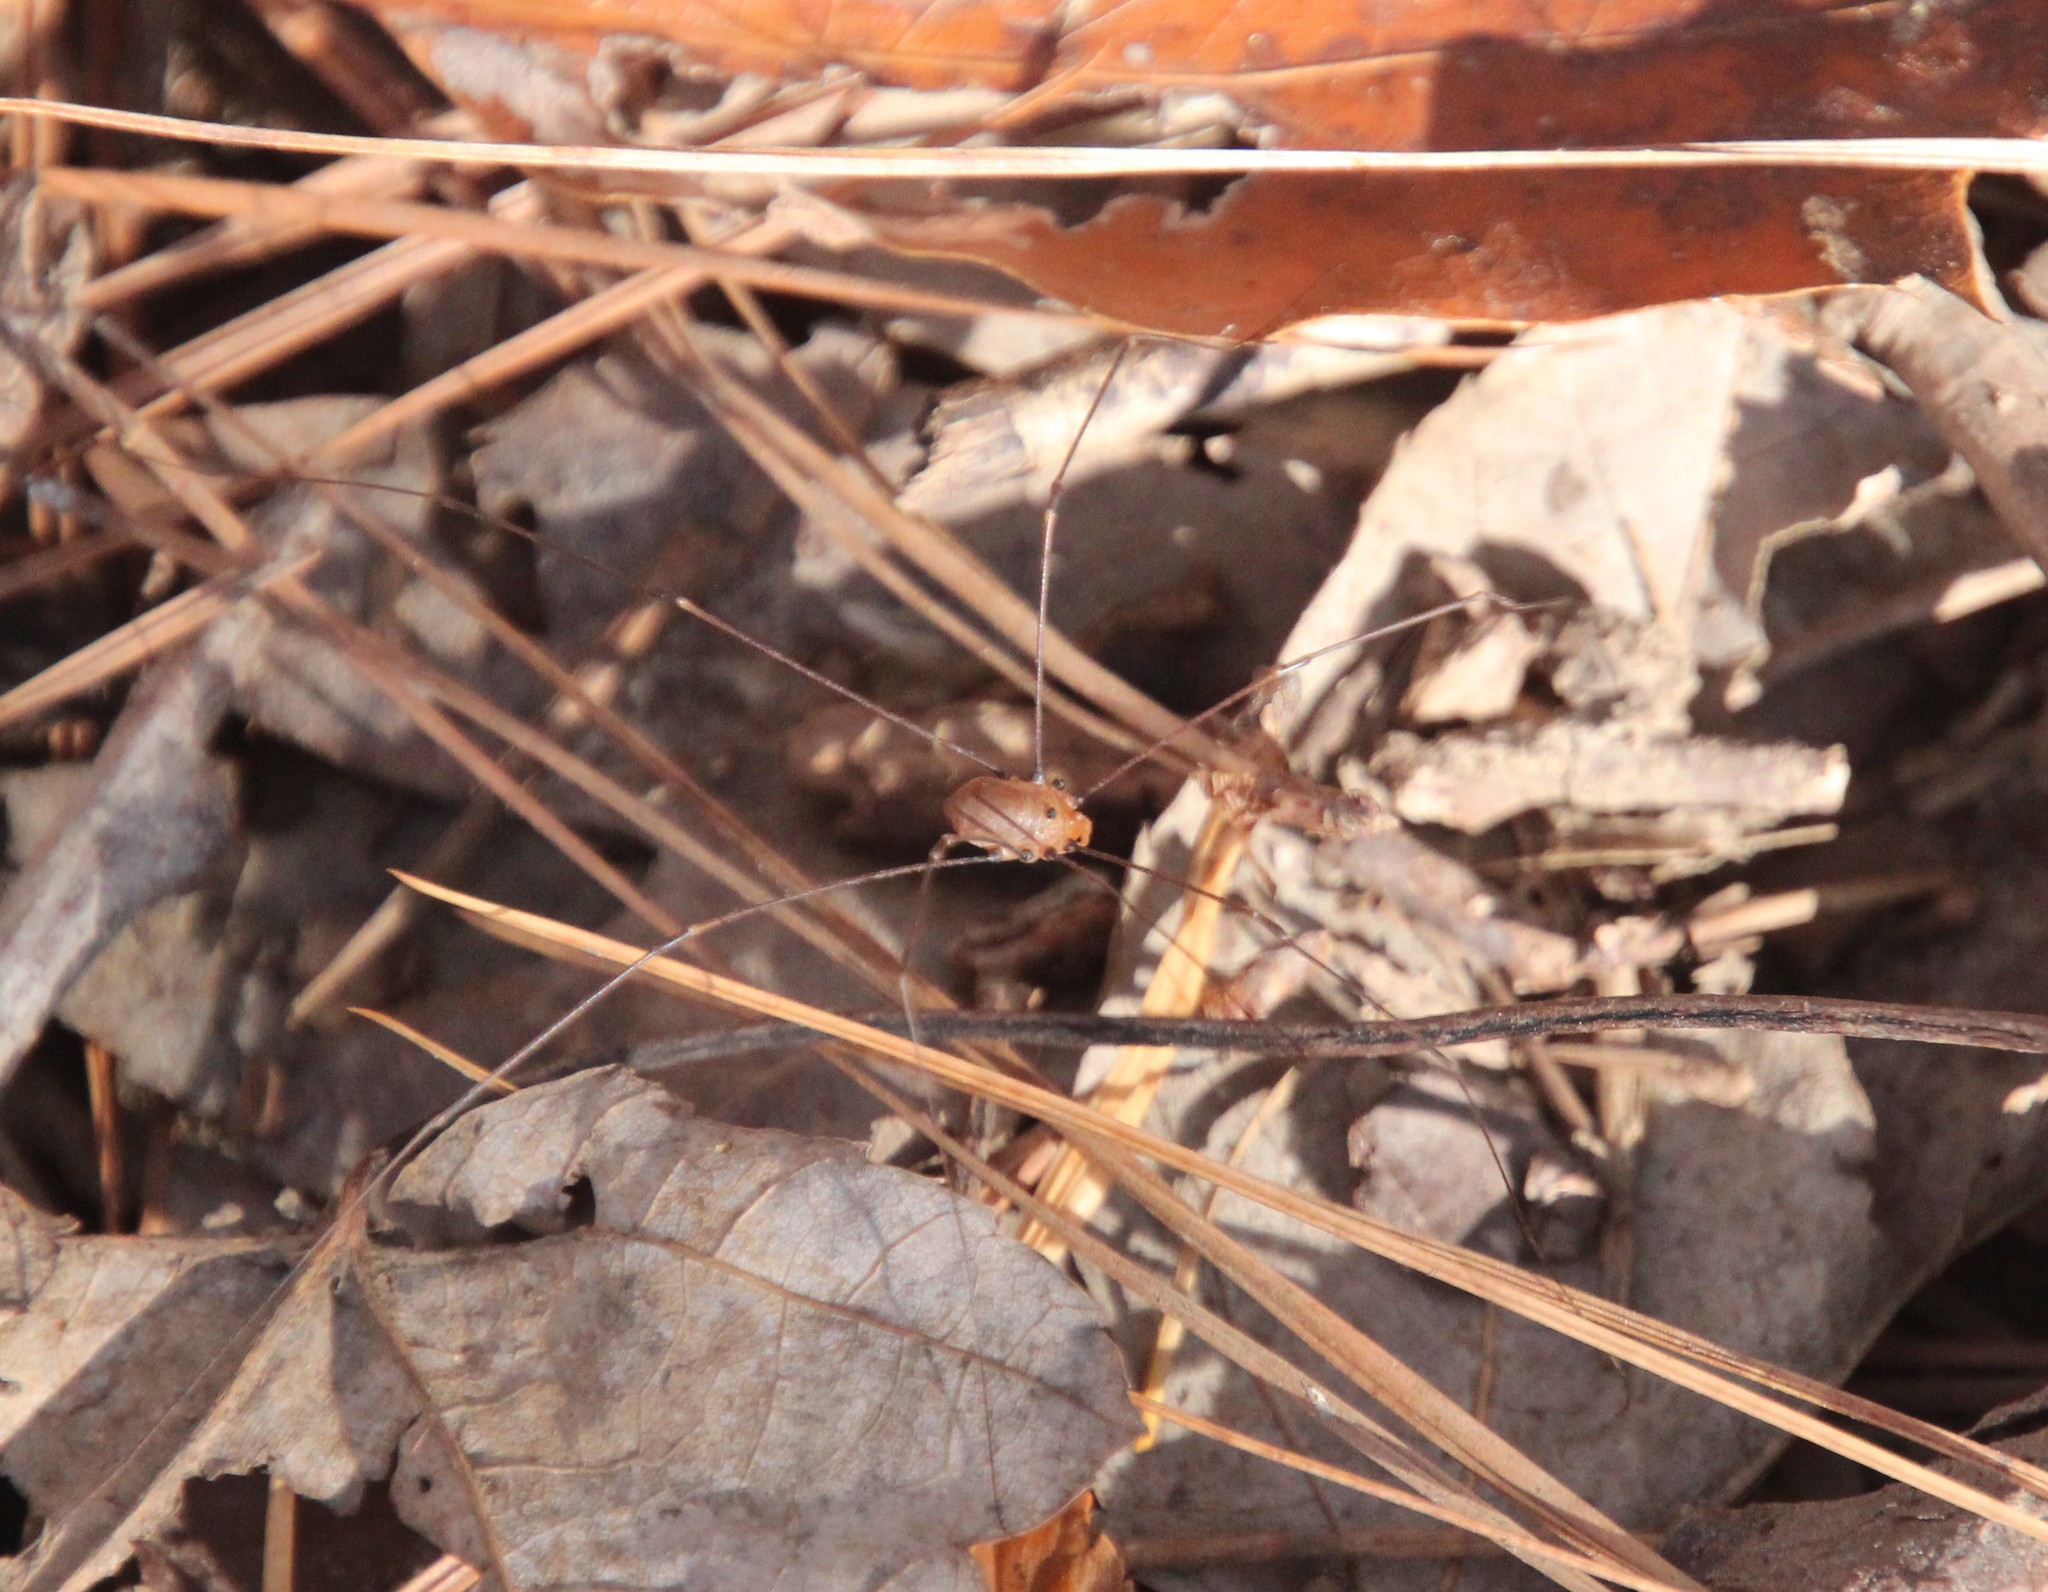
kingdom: Animalia
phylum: Arthropoda
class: Arachnida
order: Opiliones
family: Sclerosomatidae
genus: Leiobunum
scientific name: Leiobunum uxorium
